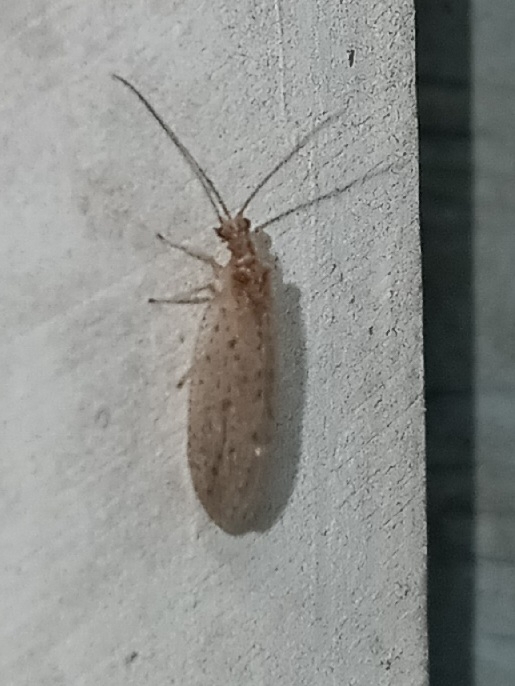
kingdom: Animalia
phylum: Arthropoda
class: Insecta
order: Neuroptera
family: Hemerobiidae
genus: Micromus
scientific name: Micromus subanticus
